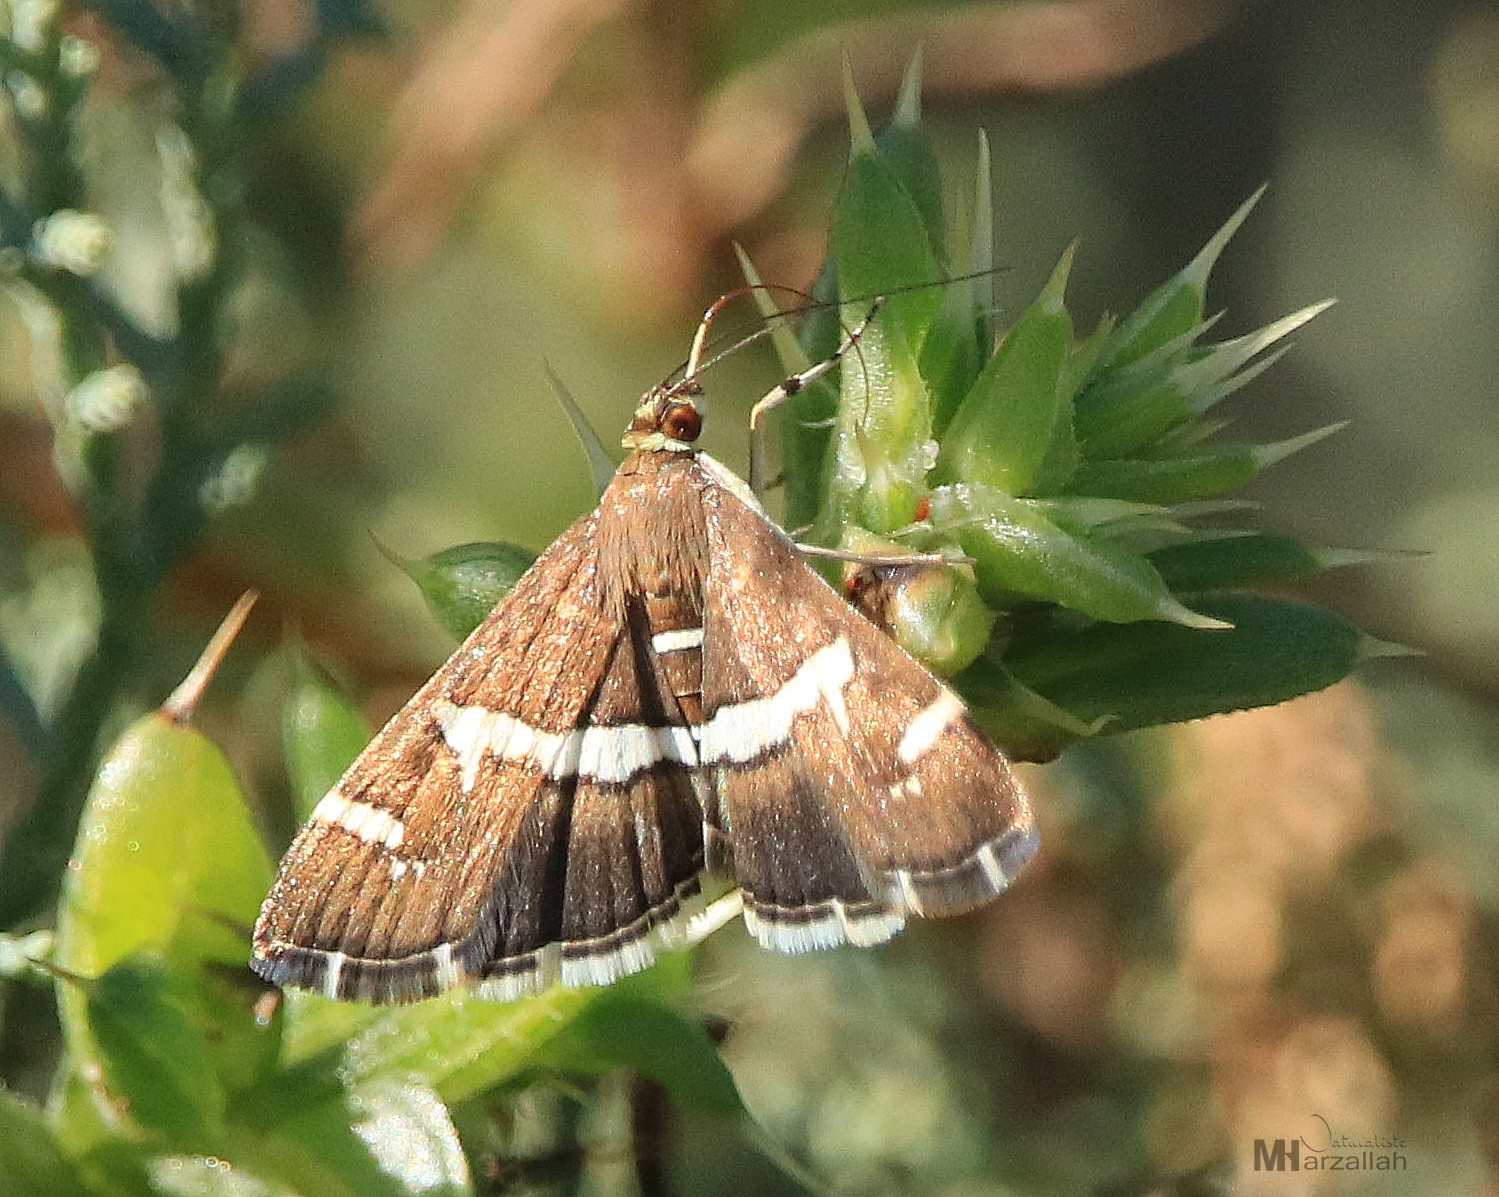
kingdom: Animalia
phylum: Arthropoda
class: Insecta
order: Lepidoptera
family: Crambidae
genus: Spoladea
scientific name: Spoladea recurvalis
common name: Beet webworm moth
